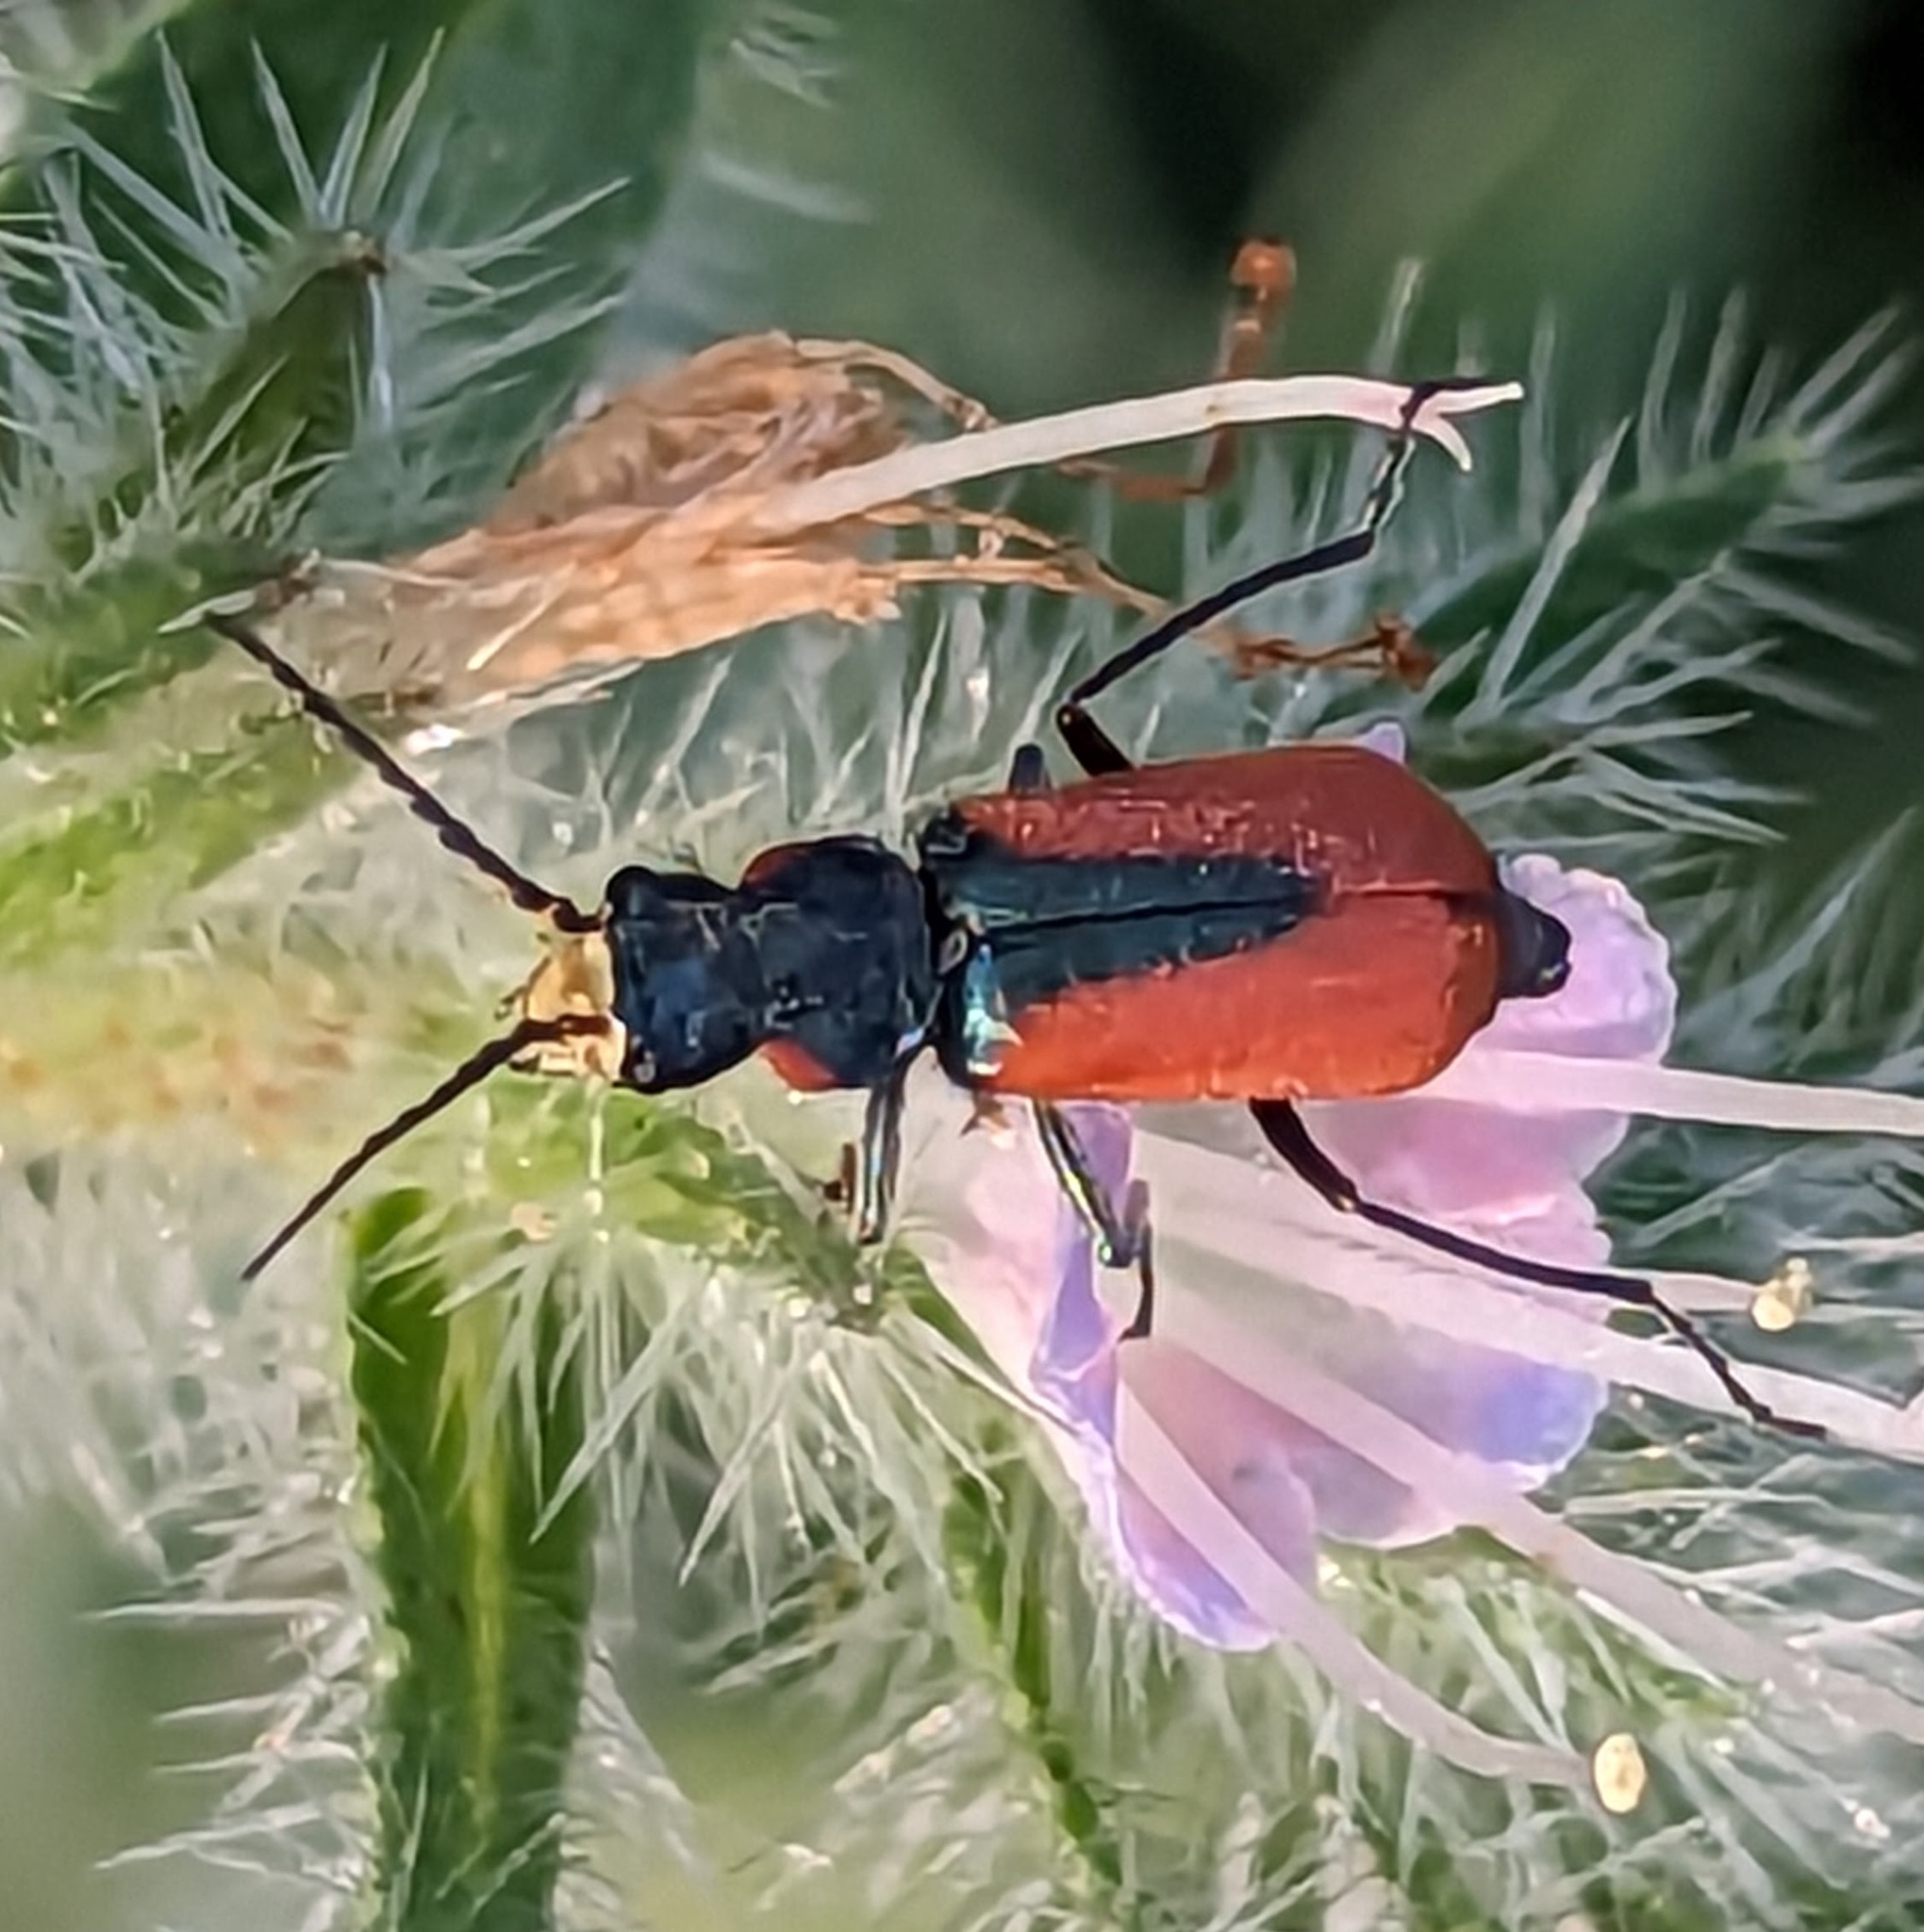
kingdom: Animalia
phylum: Arthropoda
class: Insecta
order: Coleoptera
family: Melyridae
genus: Malachius
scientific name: Malachius aeneus
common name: Scarlet malachite beetle
